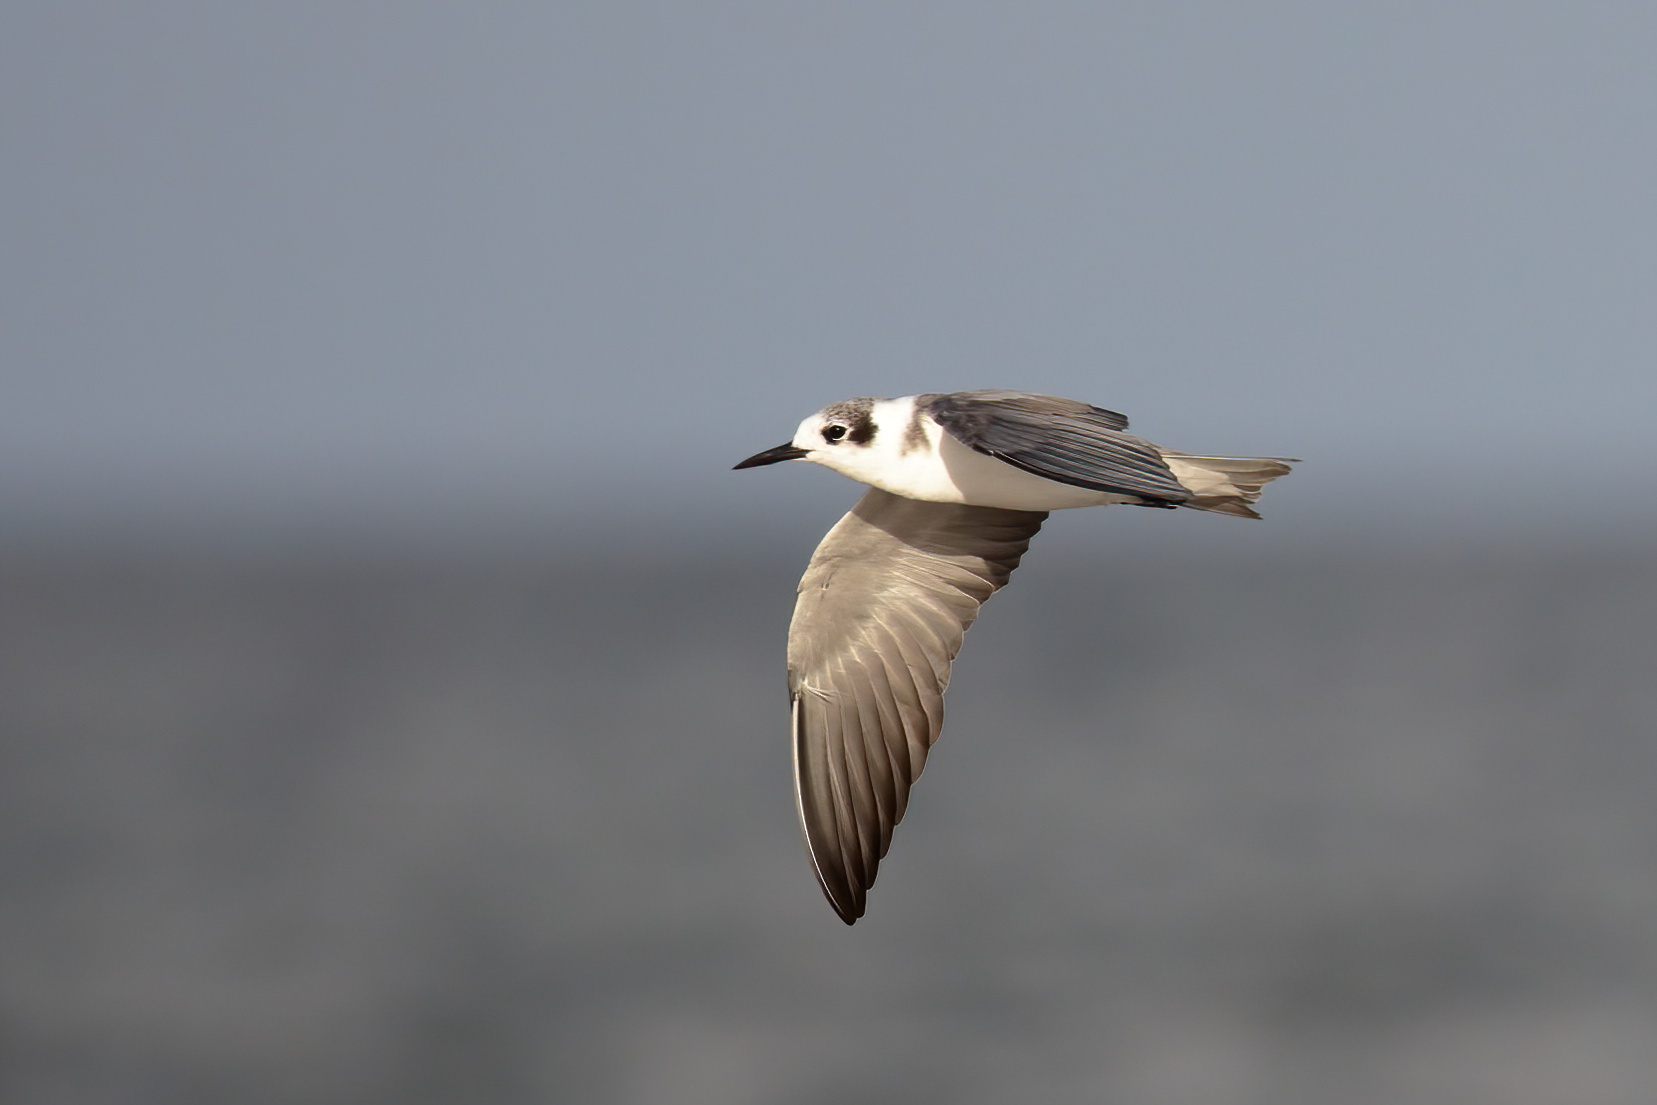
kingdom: Animalia
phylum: Chordata
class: Aves
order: Charadriiformes
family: Laridae
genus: Chlidonias
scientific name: Chlidonias niger
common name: Black tern
